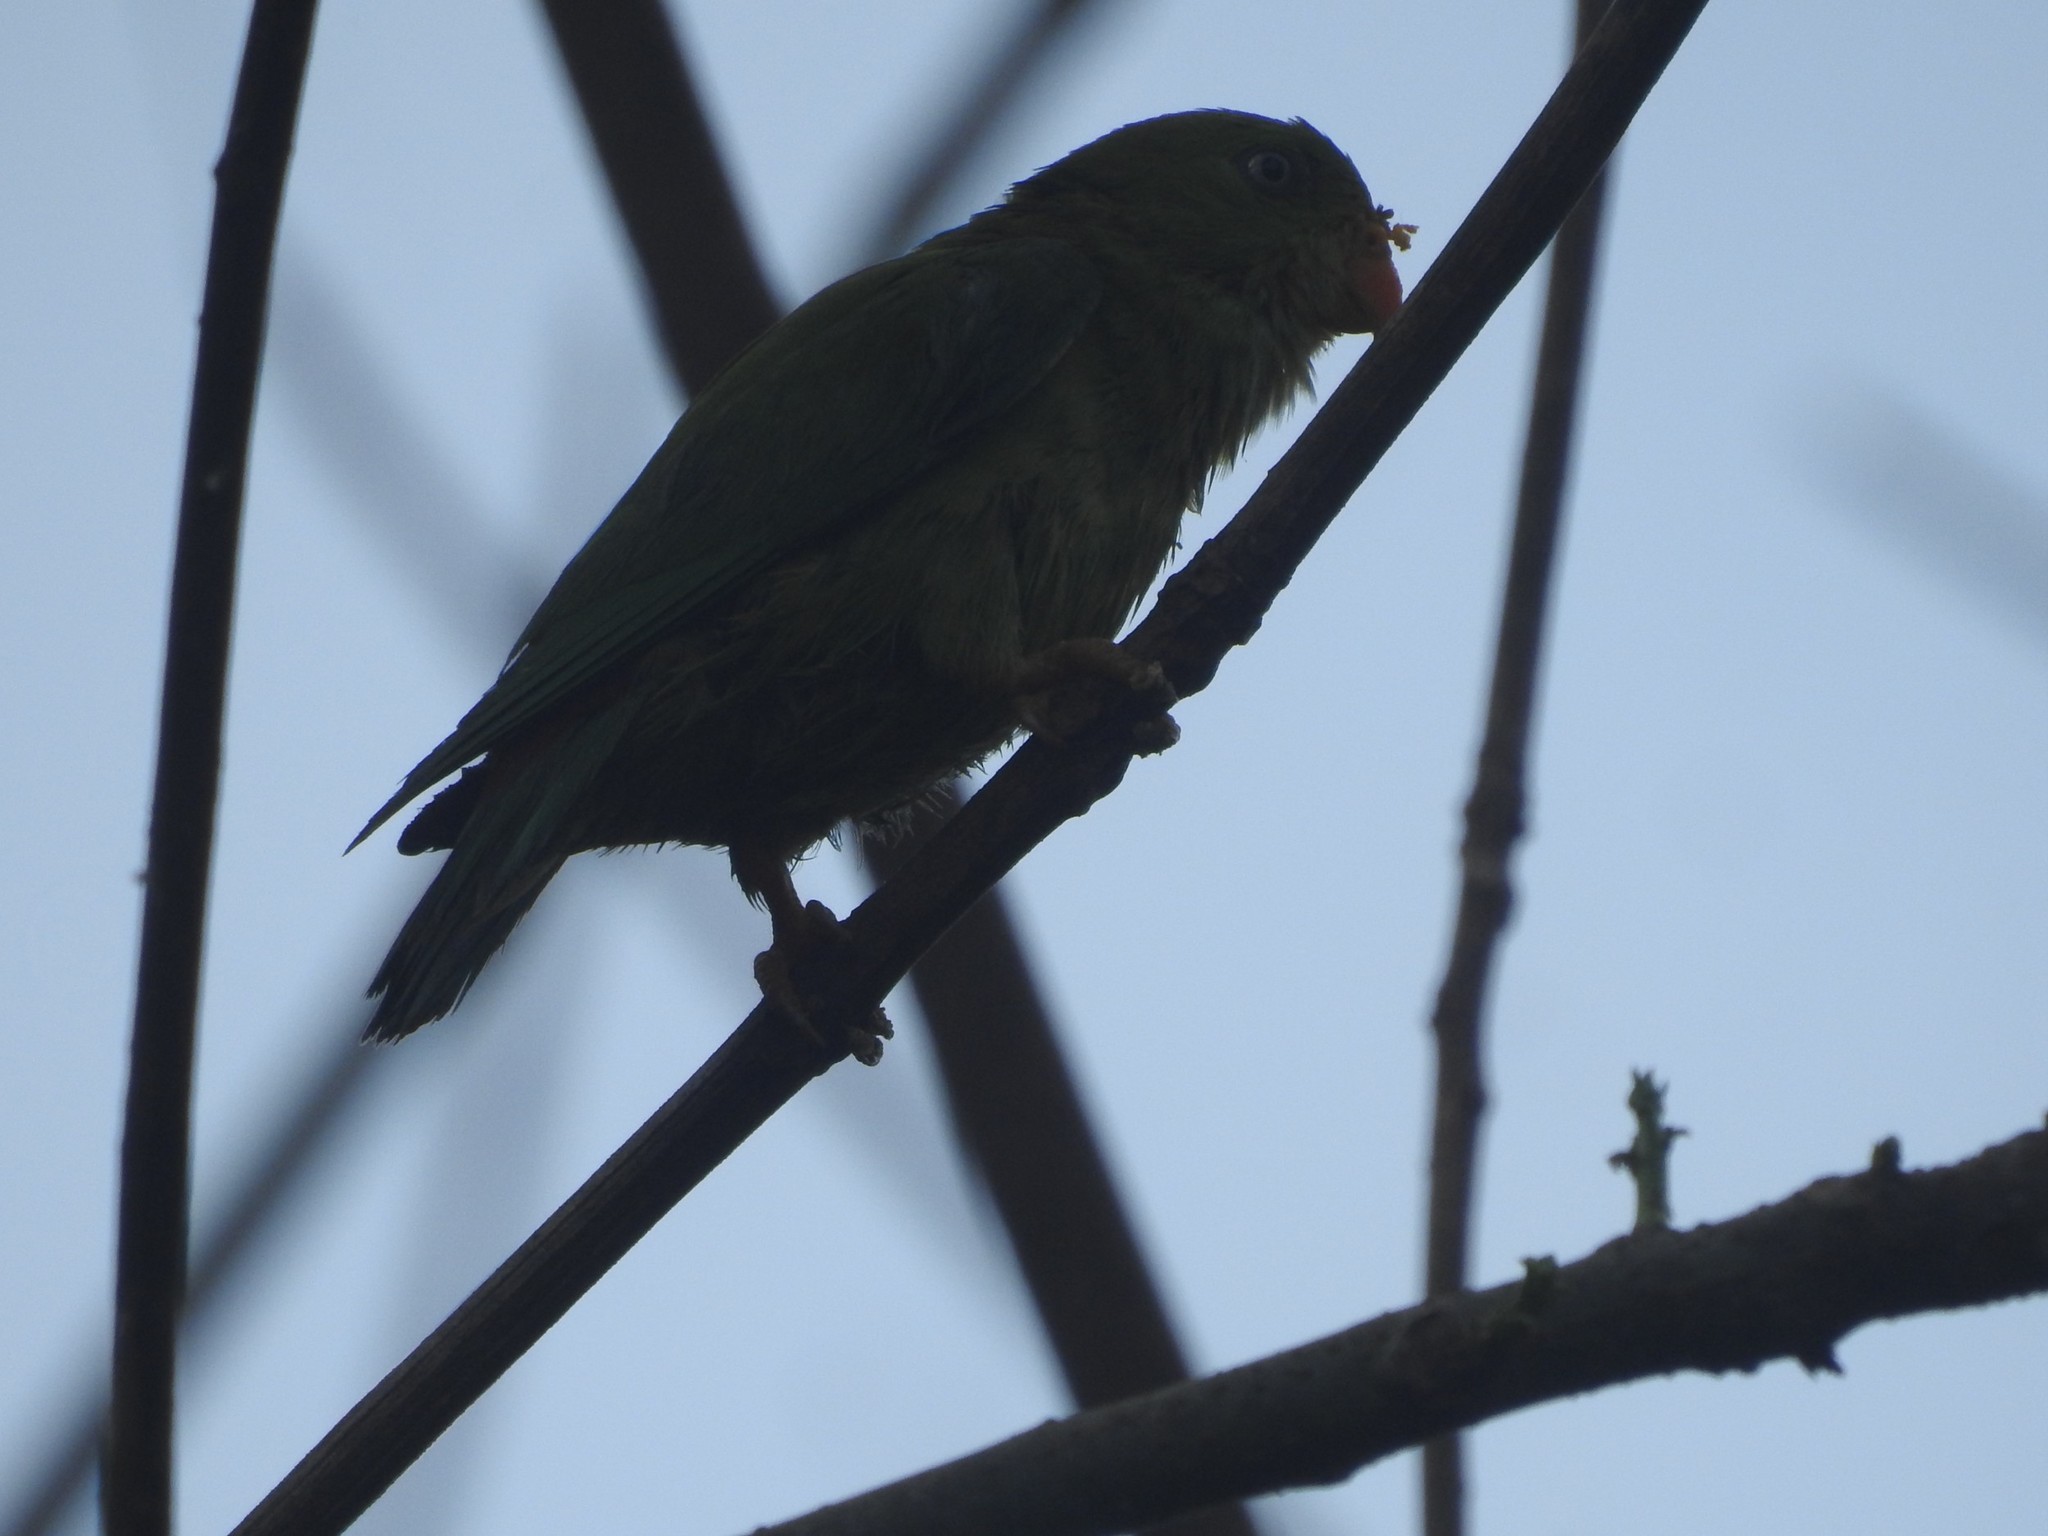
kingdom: Animalia
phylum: Chordata
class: Aves
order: Psittaciformes
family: Psittacidae
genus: Loriculus
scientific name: Loriculus vernalis
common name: Vernal hanging parrot
